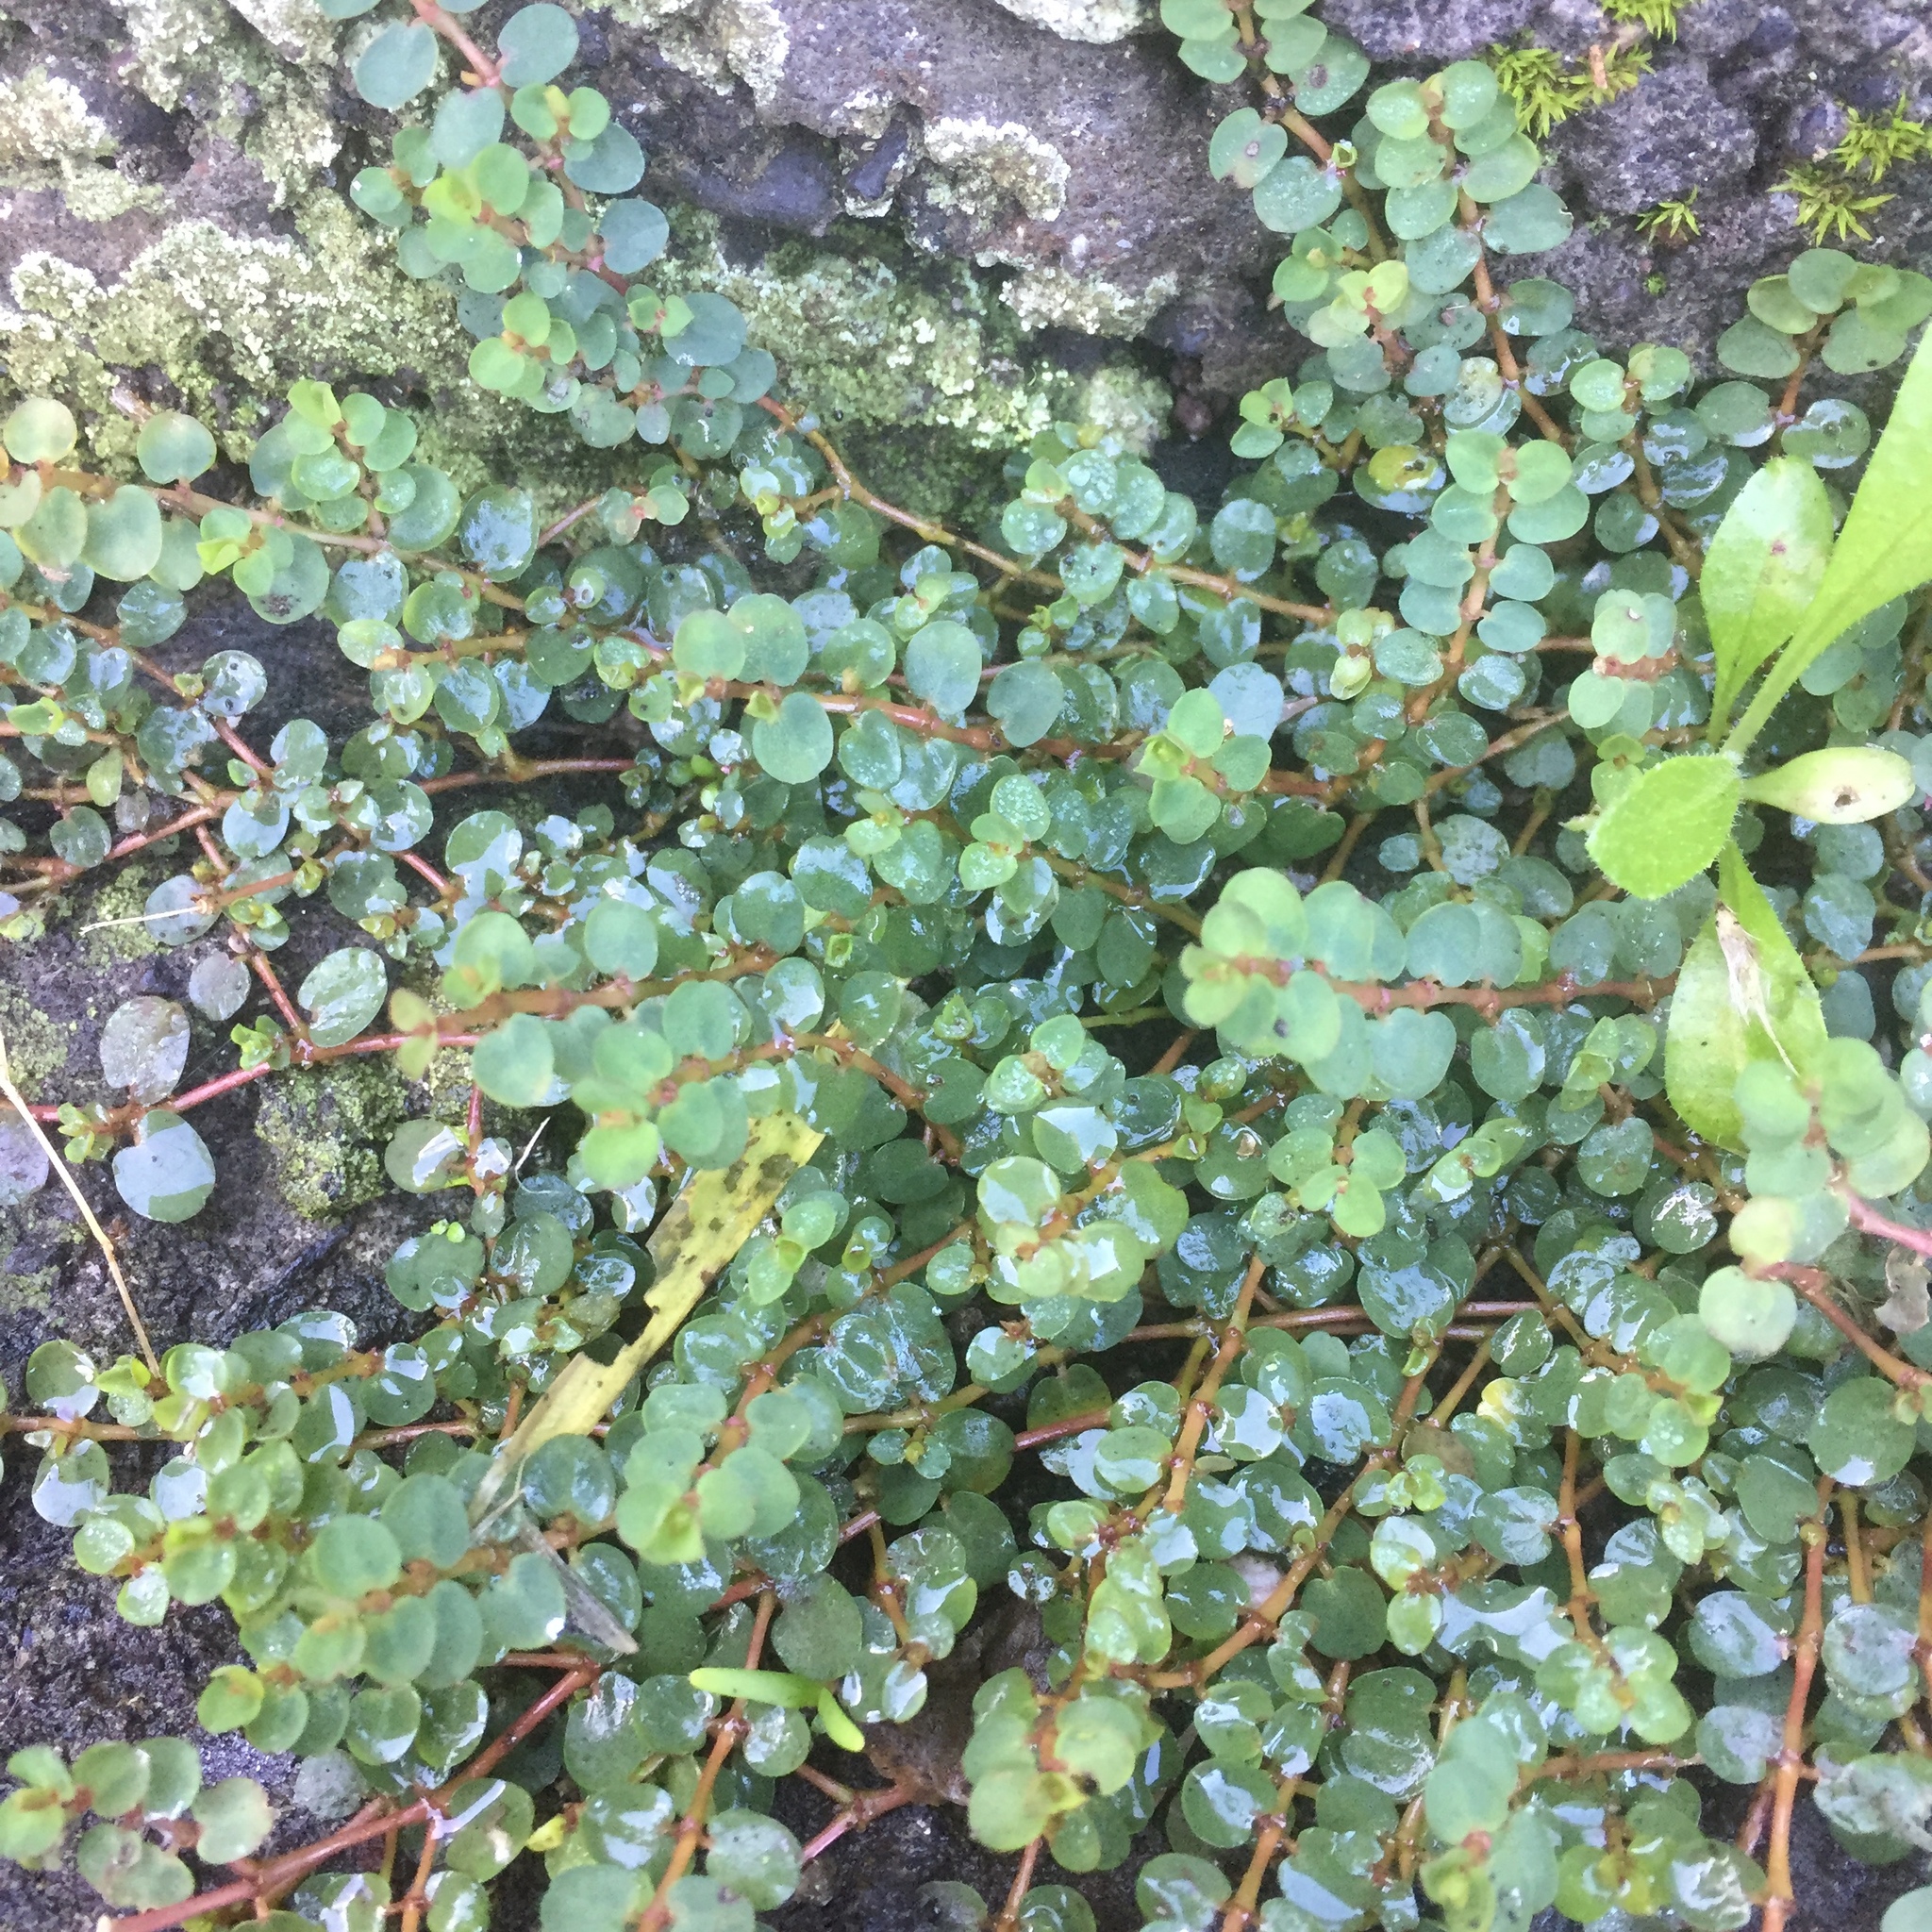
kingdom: Plantae
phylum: Tracheophyta
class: Magnoliopsida
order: Malpighiales
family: Euphorbiaceae
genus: Euphorbia
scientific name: Euphorbia serpens
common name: Matted sandmat
